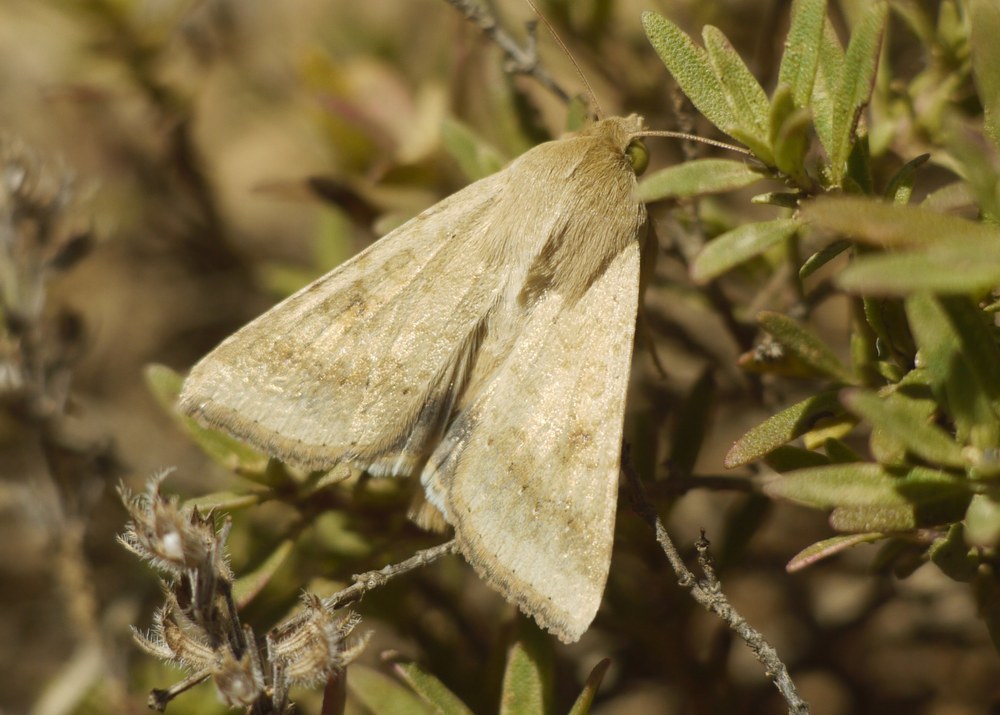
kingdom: Animalia
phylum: Arthropoda
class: Insecta
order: Lepidoptera
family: Noctuidae
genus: Helicoverpa
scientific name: Helicoverpa armigera
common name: Cotton bollworm
